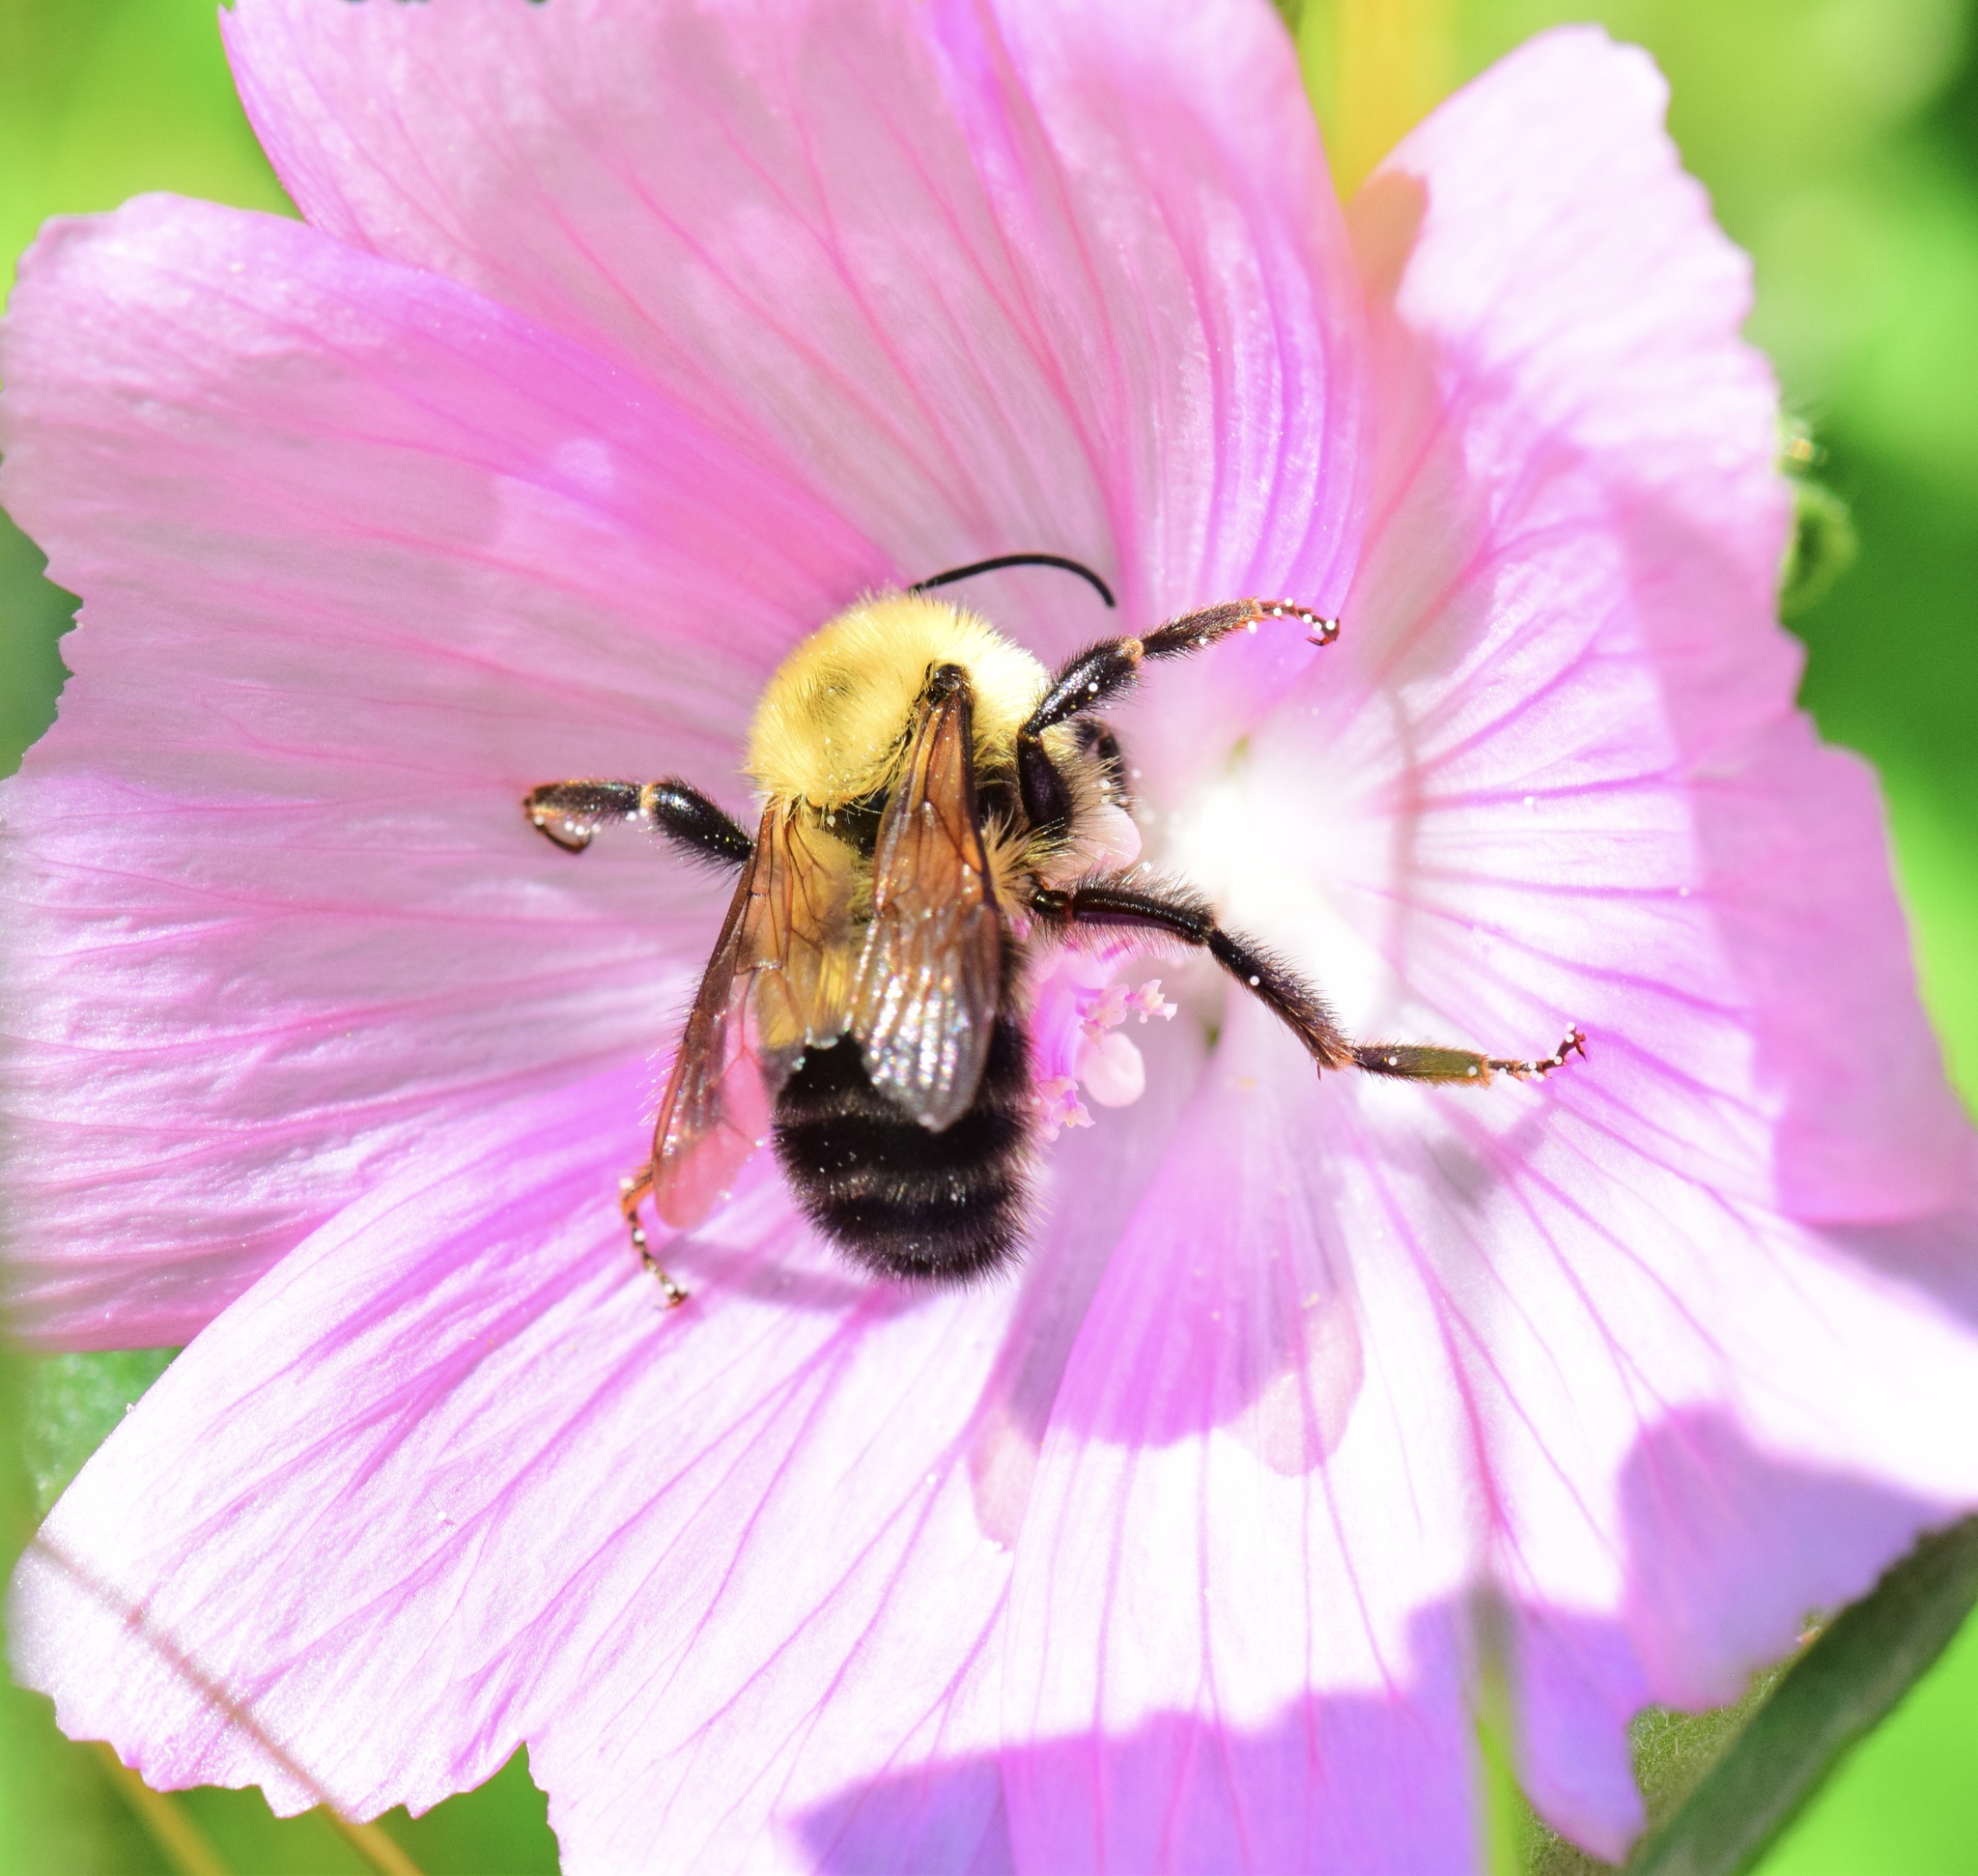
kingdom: Animalia
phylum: Arthropoda
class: Insecta
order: Hymenoptera
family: Apidae
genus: Bombus
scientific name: Bombus bimaculatus
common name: Two-spotted bumble bee
